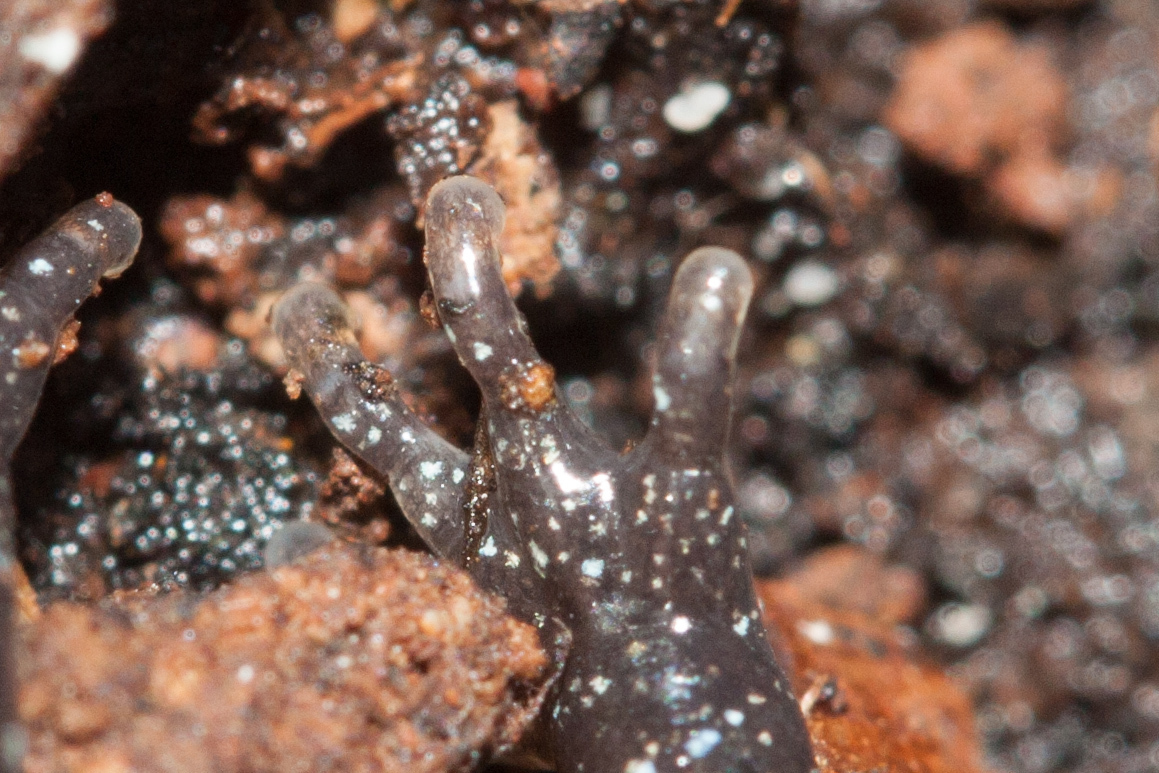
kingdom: Animalia
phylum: Chordata
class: Amphibia
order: Caudata
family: Plethodontidae
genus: Aneides
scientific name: Aneides lugubris
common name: Arboreal salamander
